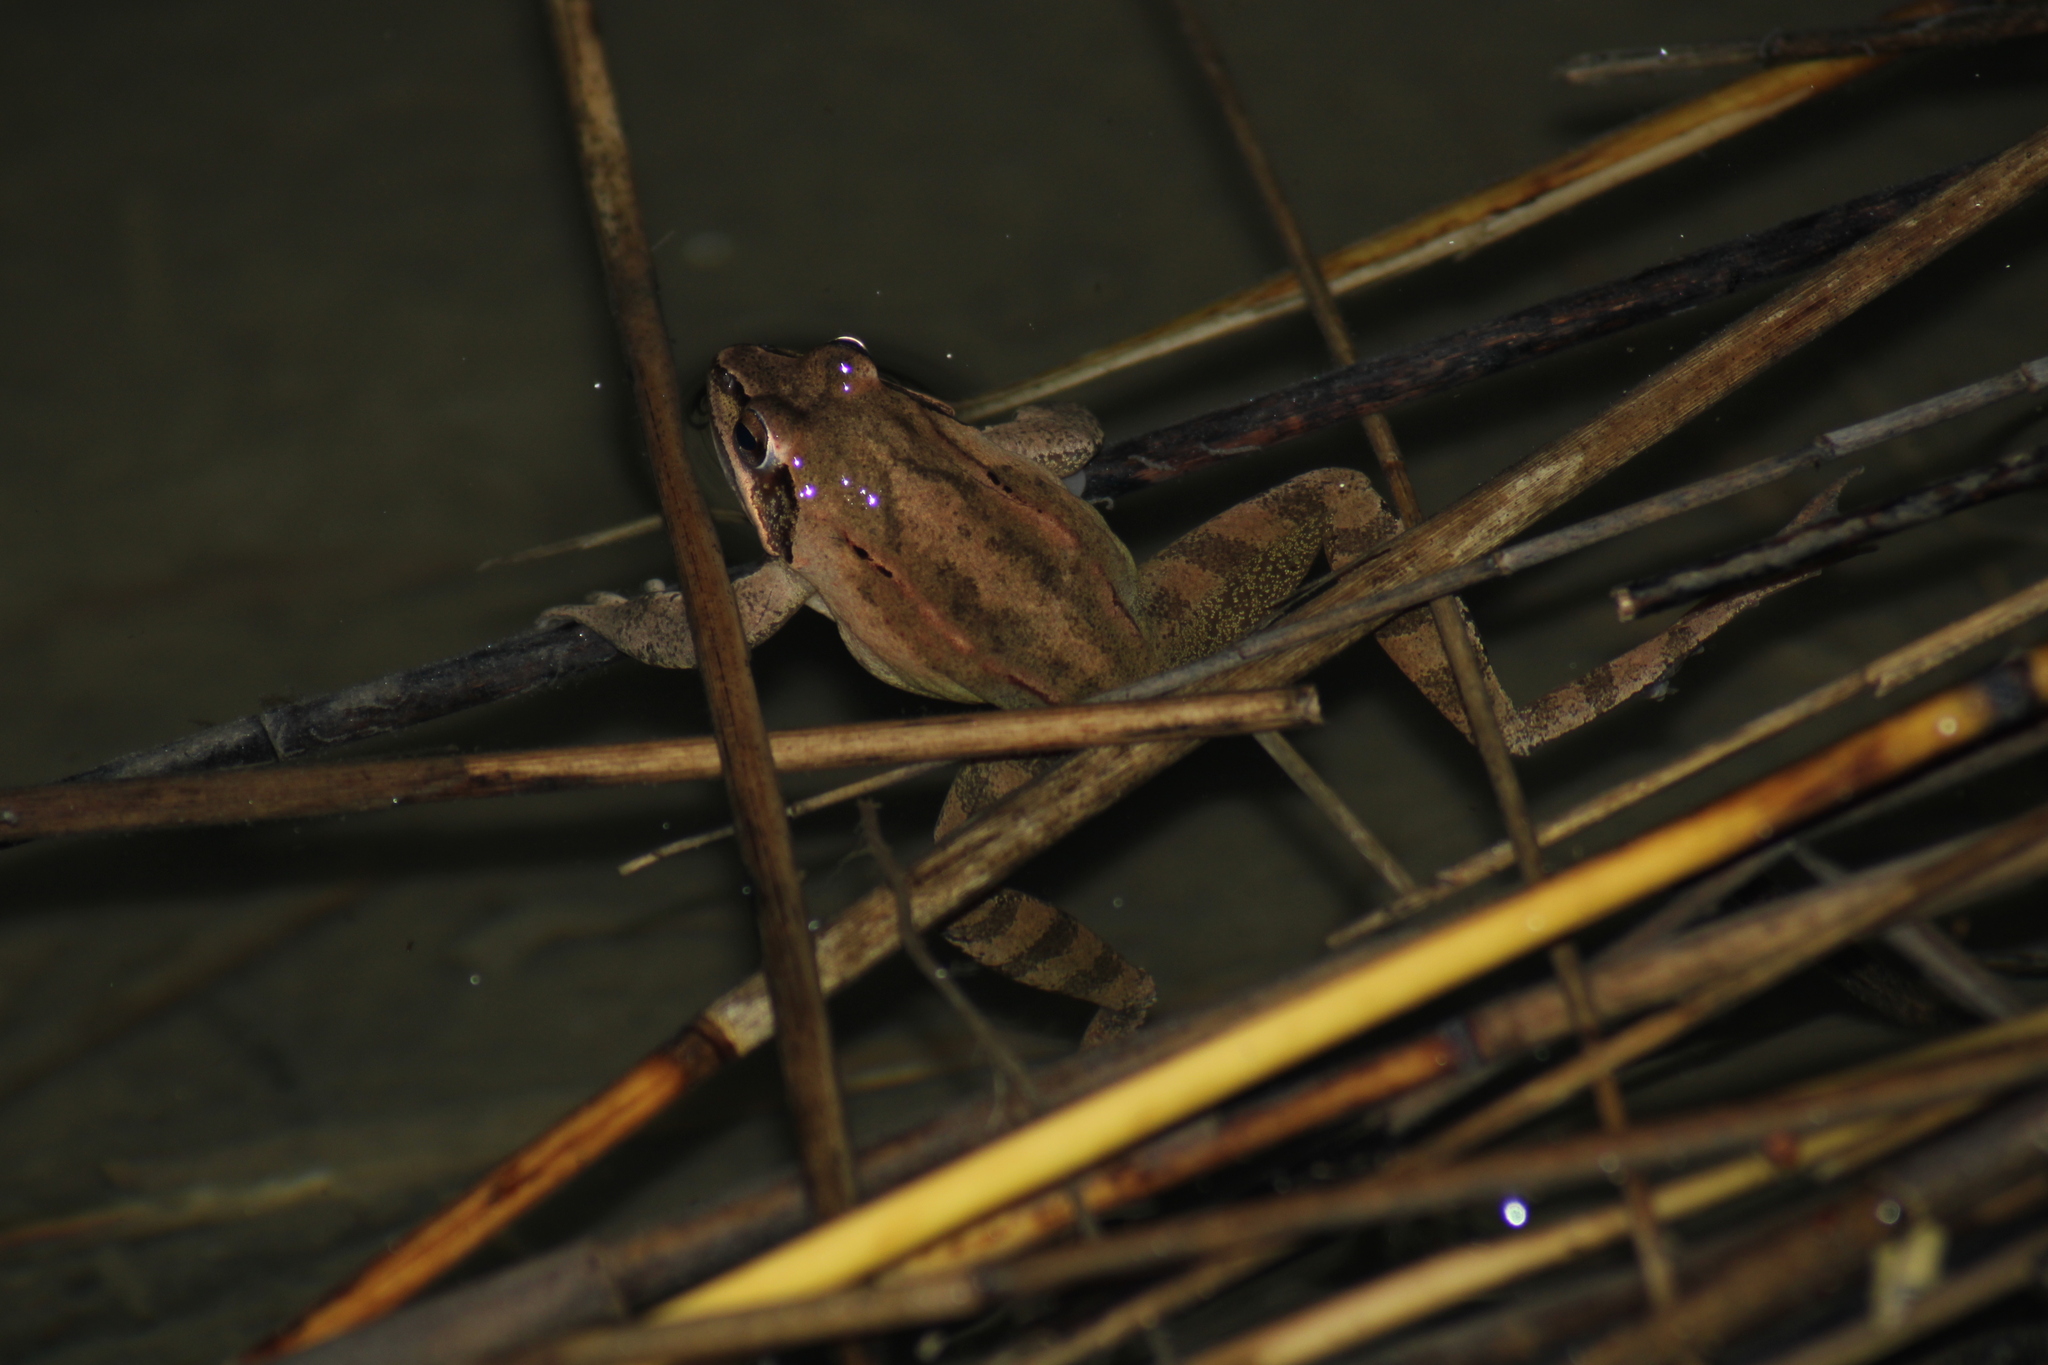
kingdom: Animalia
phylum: Chordata
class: Amphibia
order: Anura
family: Ranidae
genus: Rana
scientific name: Rana dalmatina
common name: Agile frog
